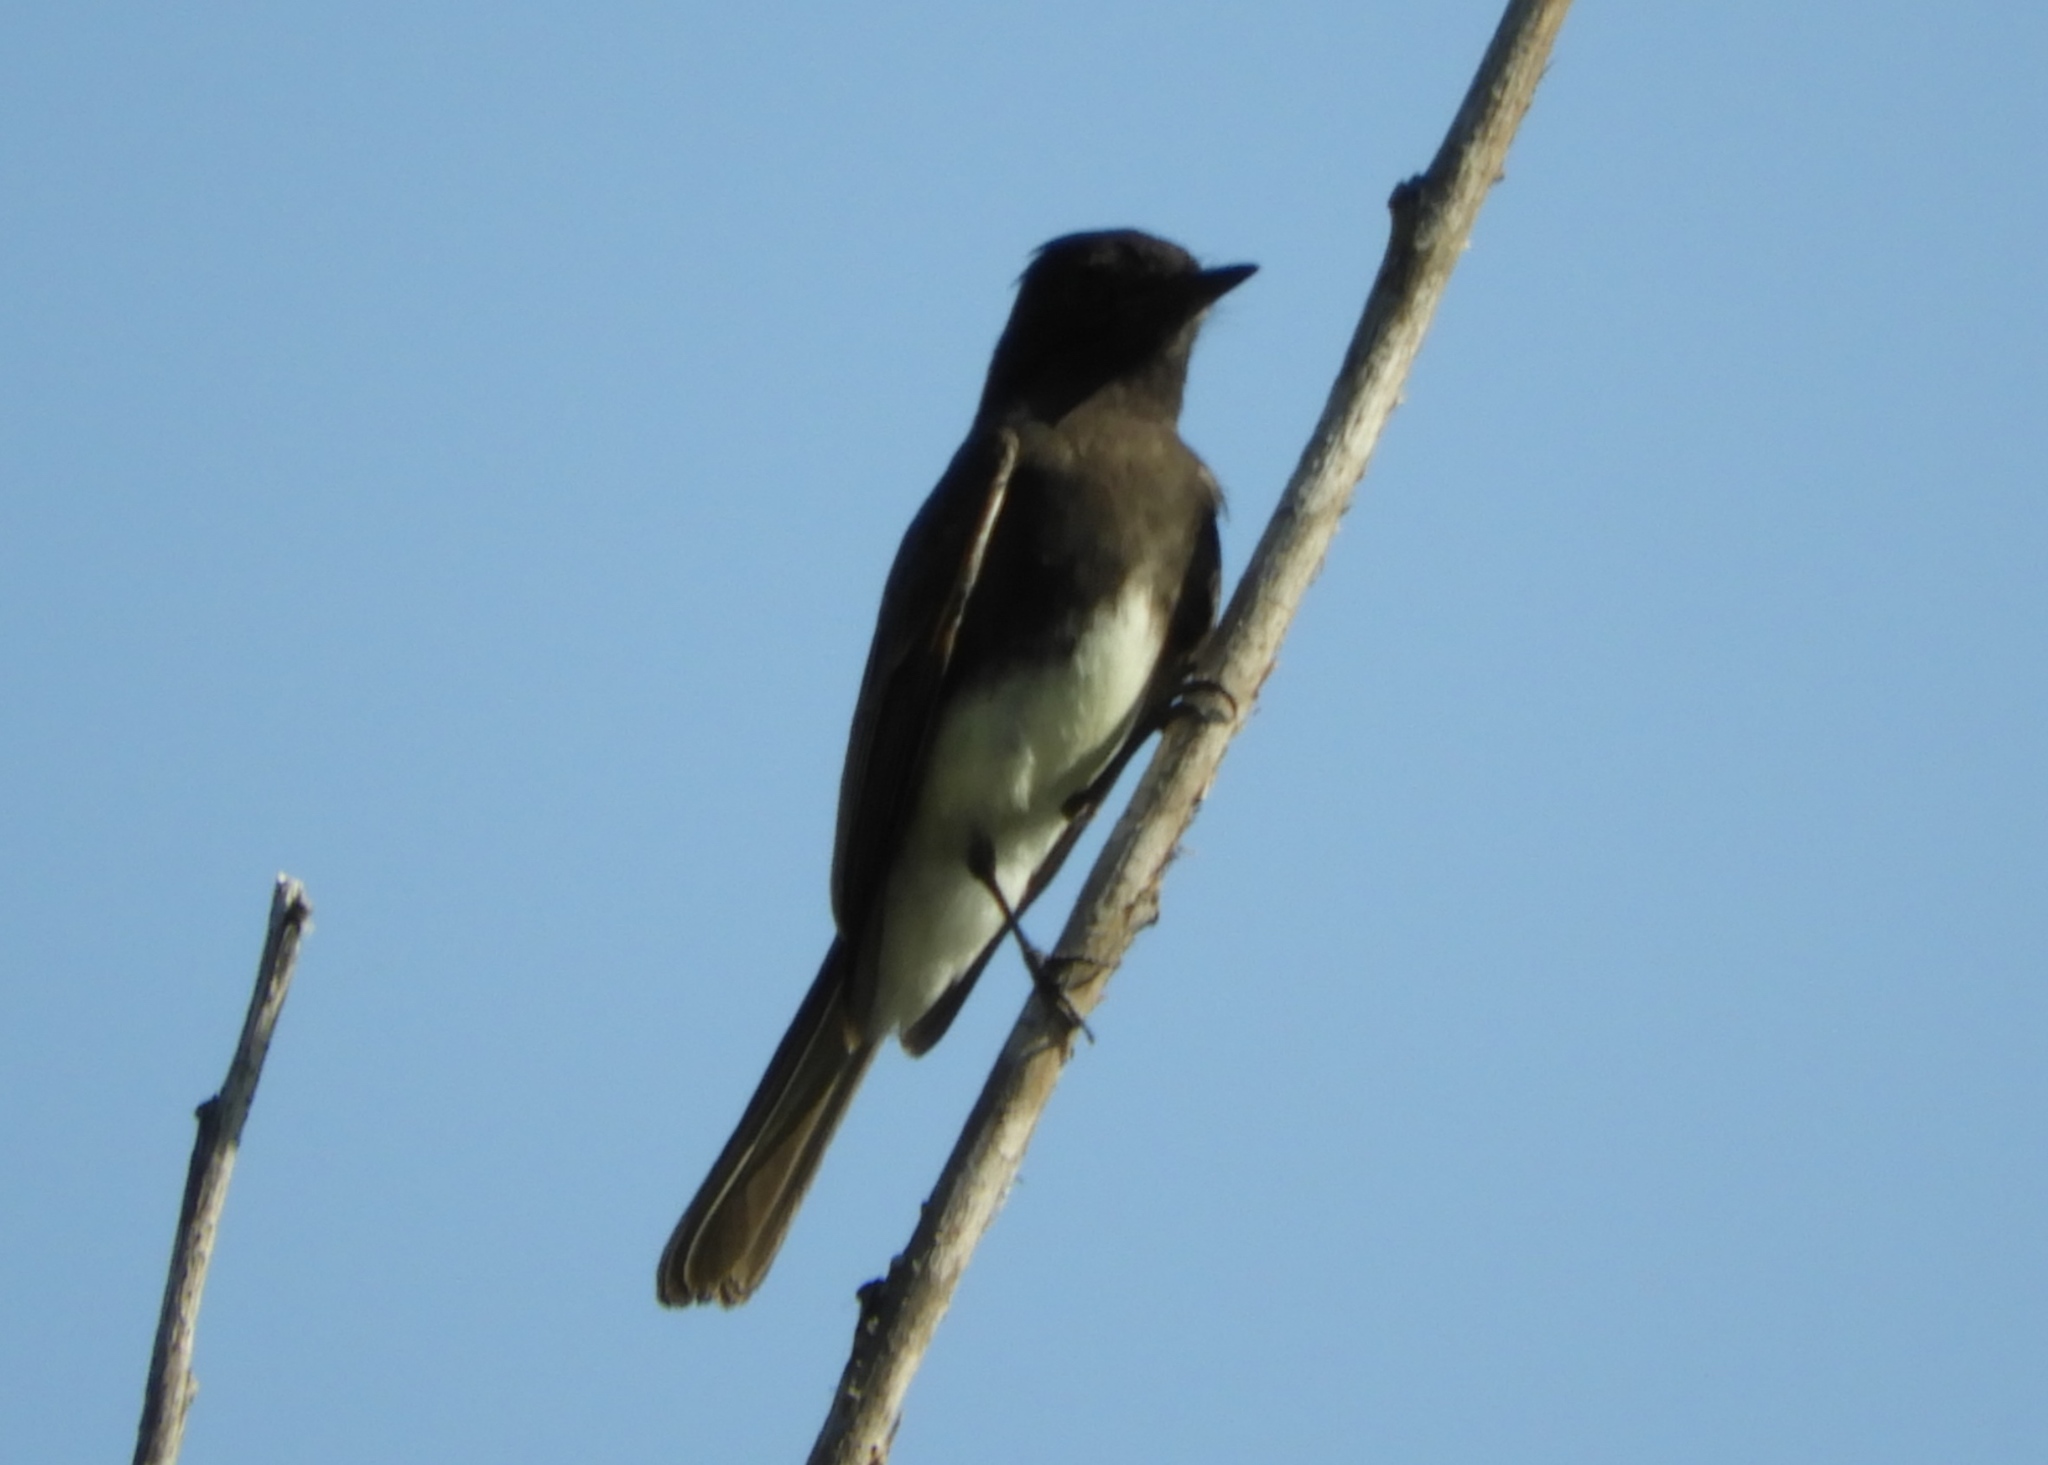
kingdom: Animalia
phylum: Chordata
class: Aves
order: Passeriformes
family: Tyrannidae
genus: Sayornis
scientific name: Sayornis nigricans
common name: Black phoebe
